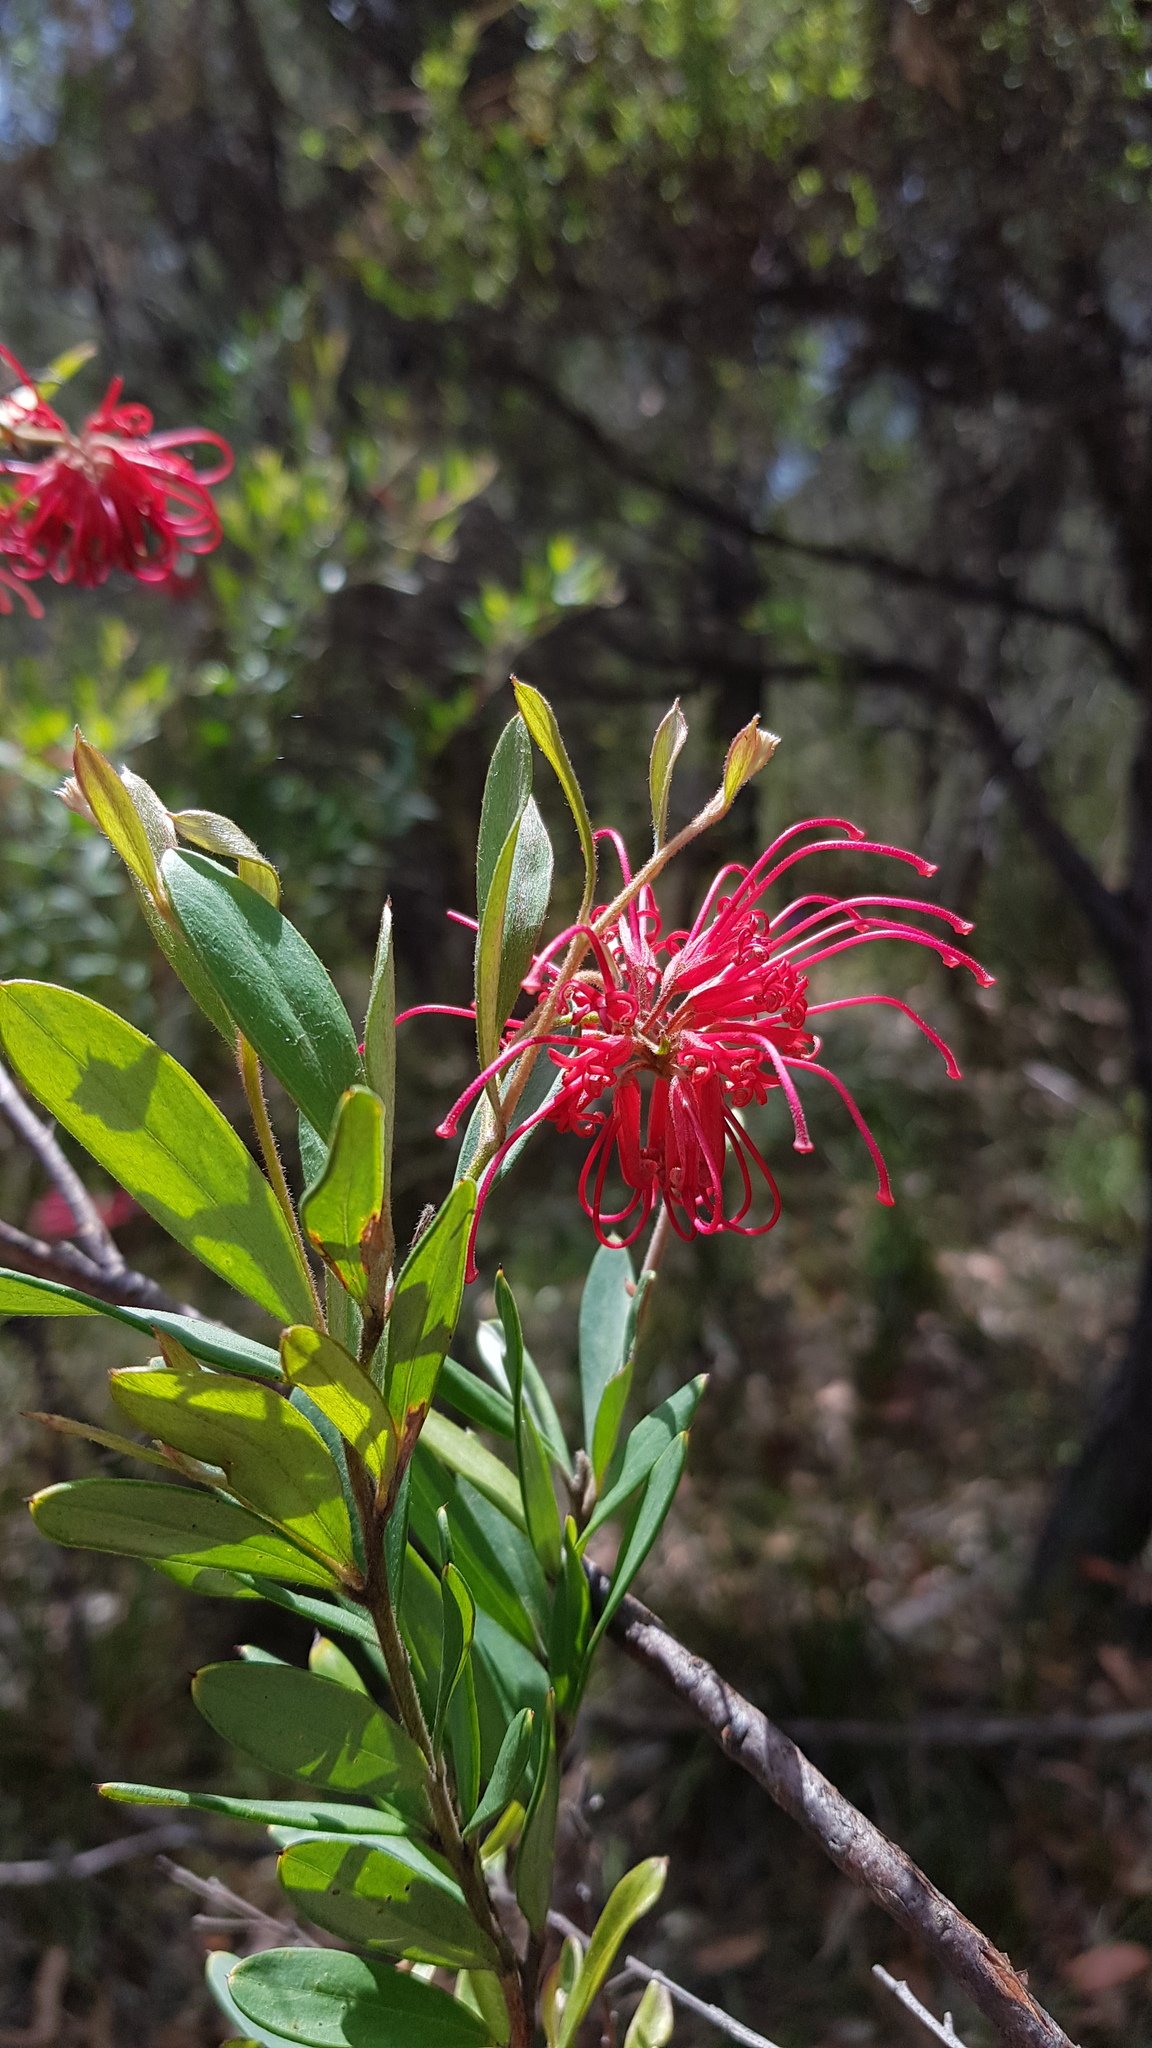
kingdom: Plantae
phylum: Tracheophyta
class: Magnoliopsida
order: Proteales
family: Proteaceae
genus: Grevillea
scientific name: Grevillea speciosa
